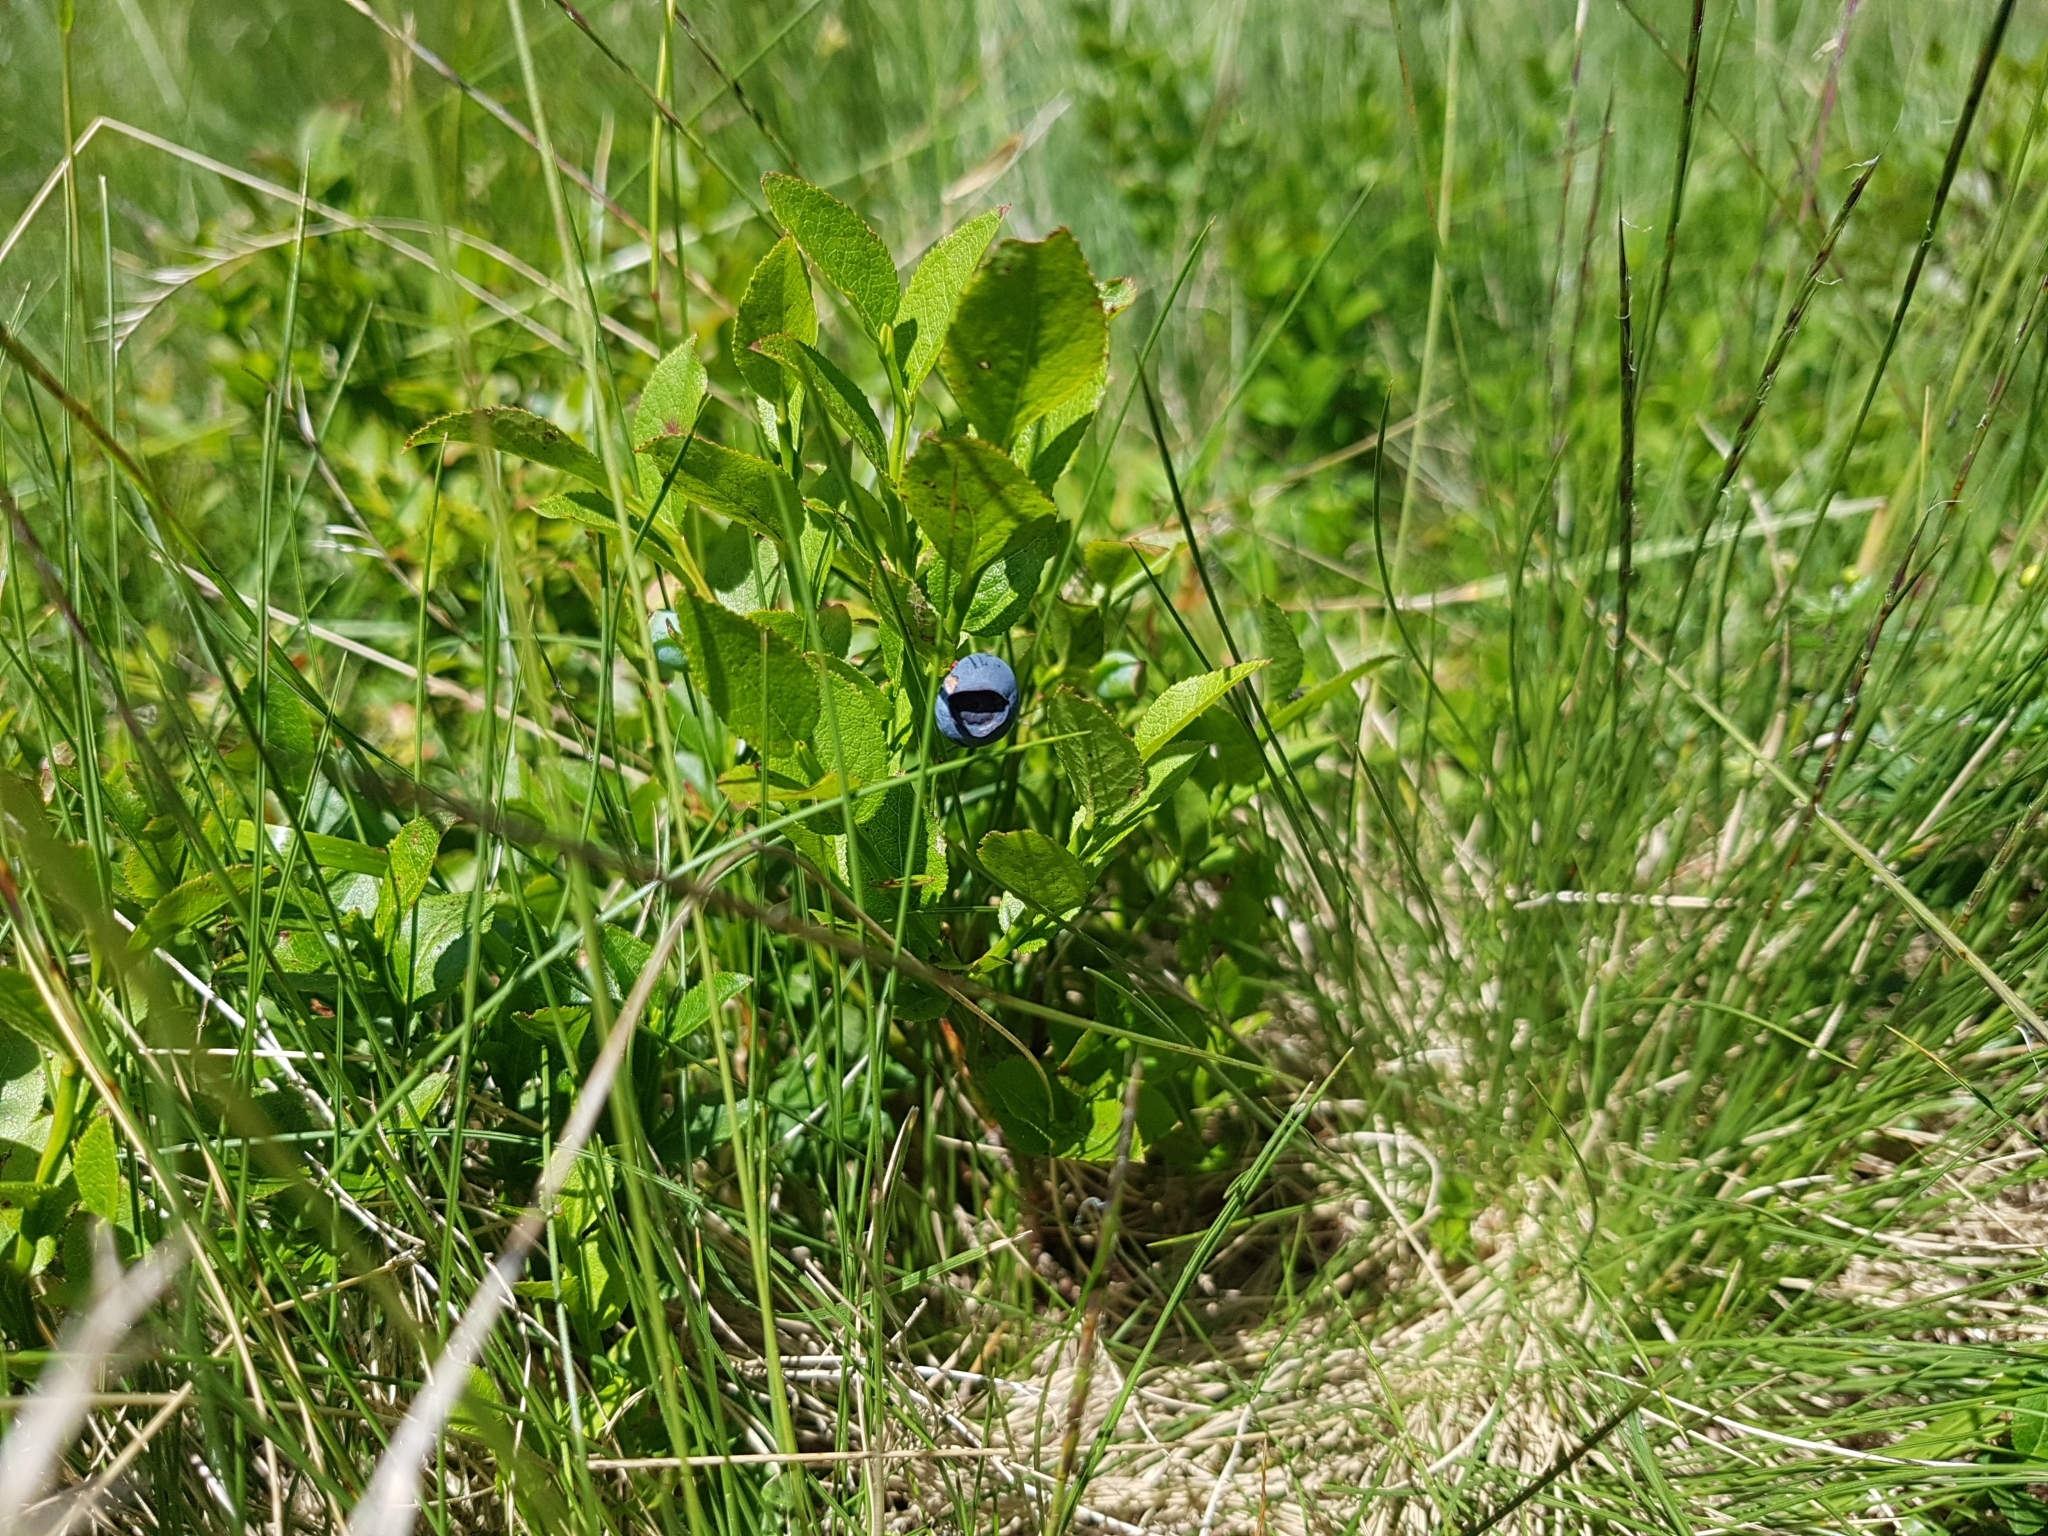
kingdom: Plantae
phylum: Tracheophyta
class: Magnoliopsida
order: Ericales
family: Ericaceae
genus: Vaccinium
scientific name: Vaccinium myrtillus
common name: Bilberry
